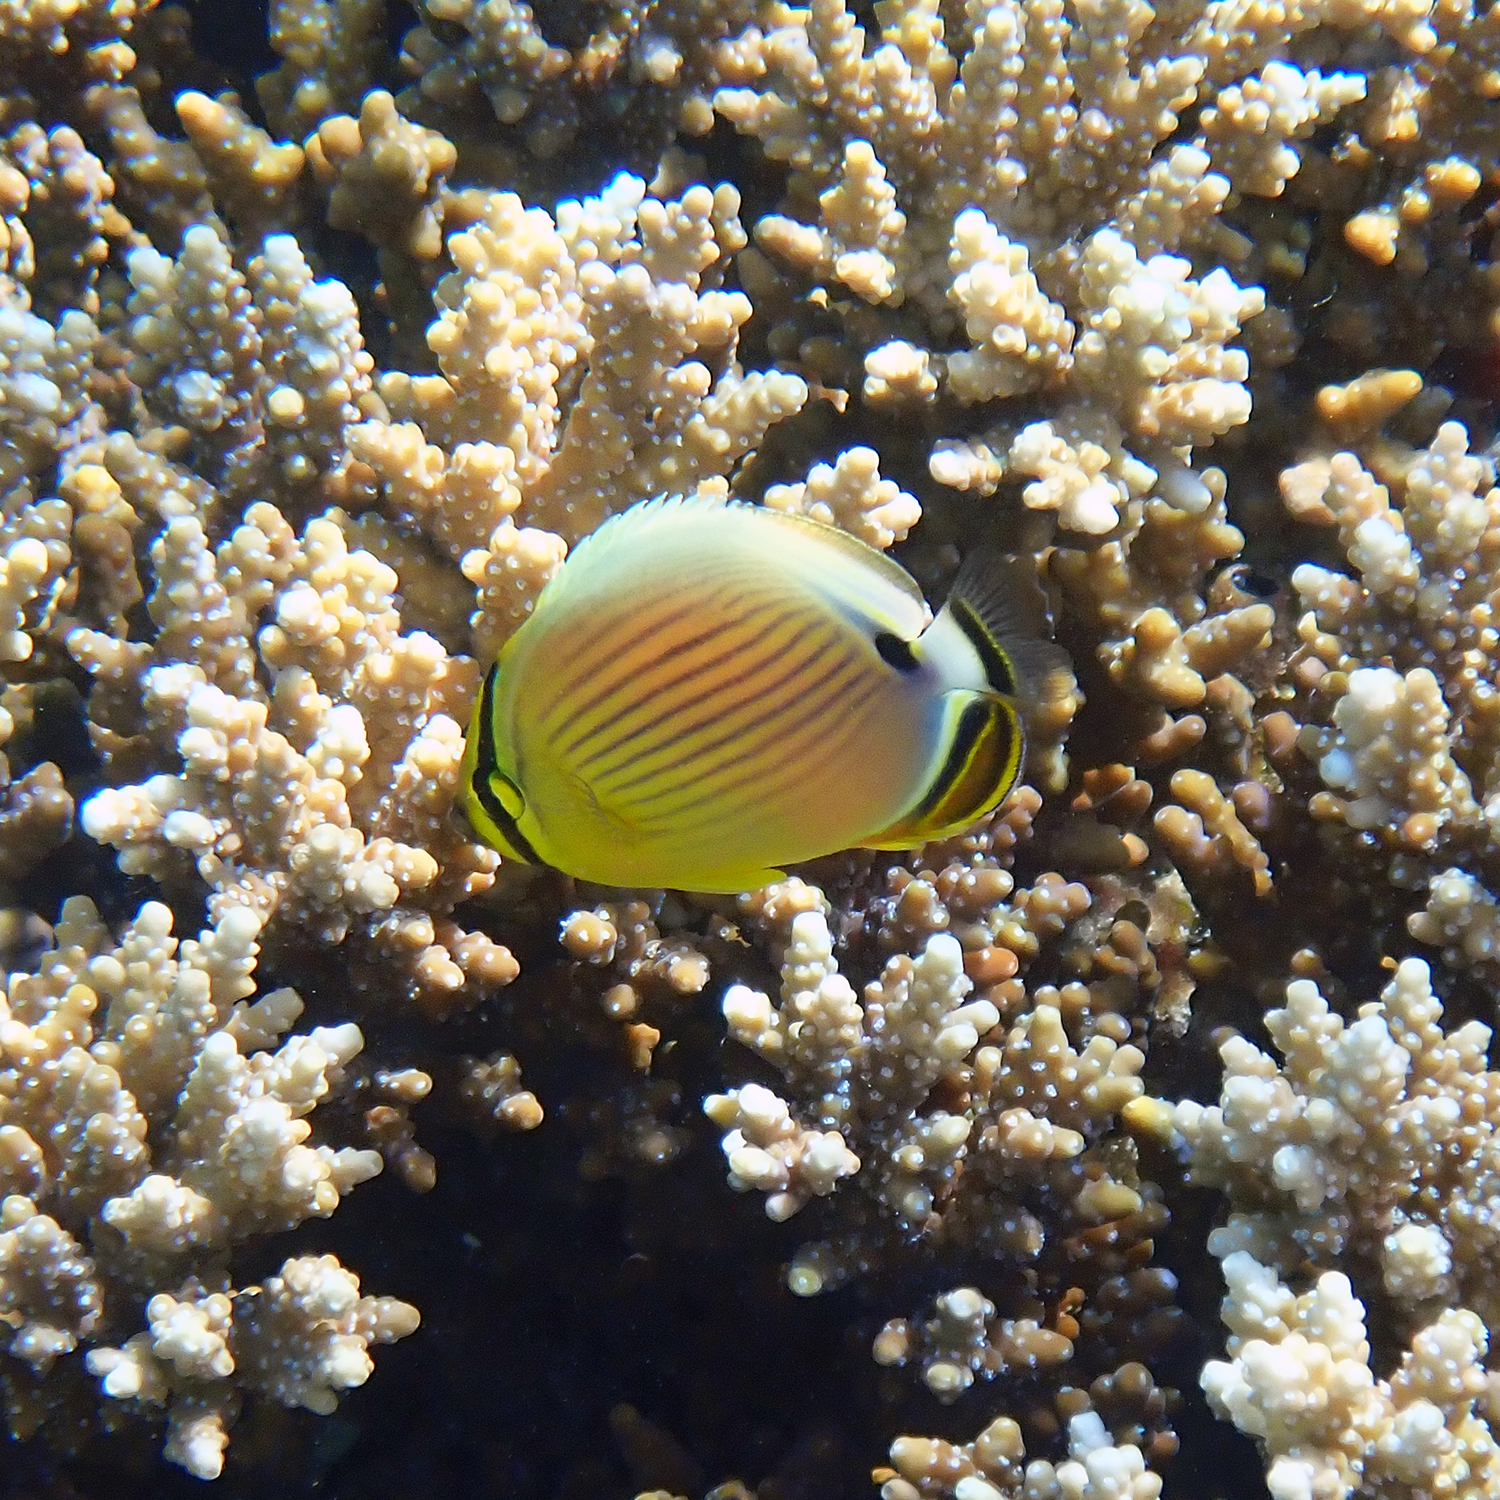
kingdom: Animalia
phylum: Chordata
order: Perciformes
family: Chaetodontidae
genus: Chaetodon
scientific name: Chaetodon lunulatus
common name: Redfin butterflyfish
